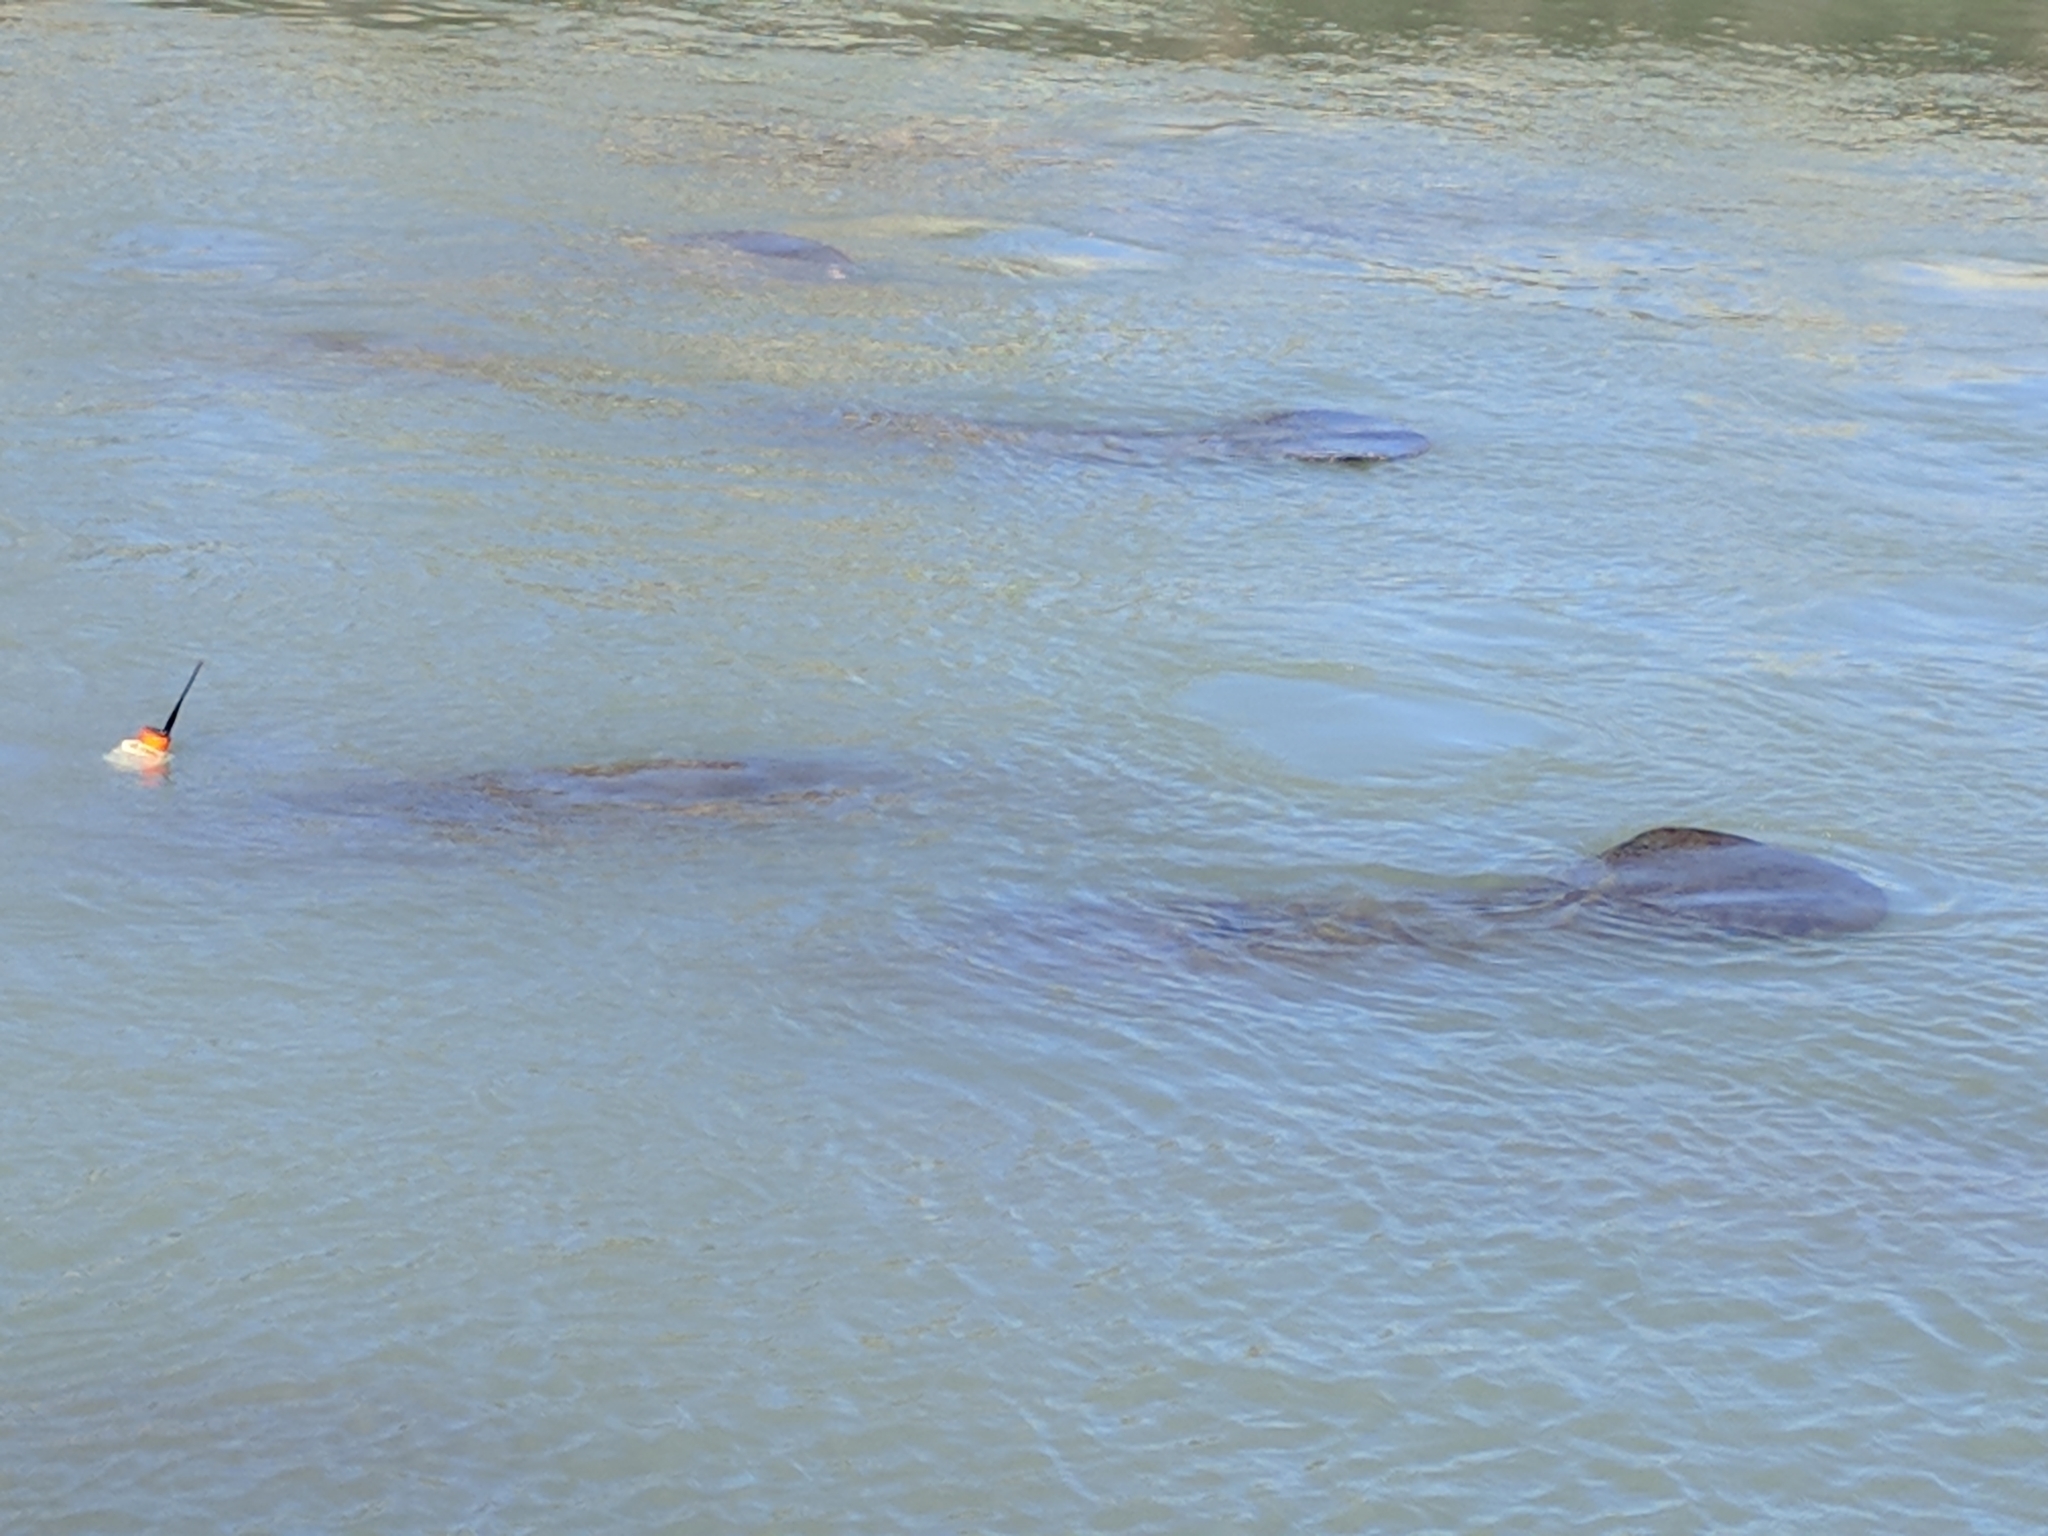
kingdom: Animalia
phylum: Chordata
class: Mammalia
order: Sirenia
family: Trichechidae
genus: Trichechus
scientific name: Trichechus manatus
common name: West indian manatee
